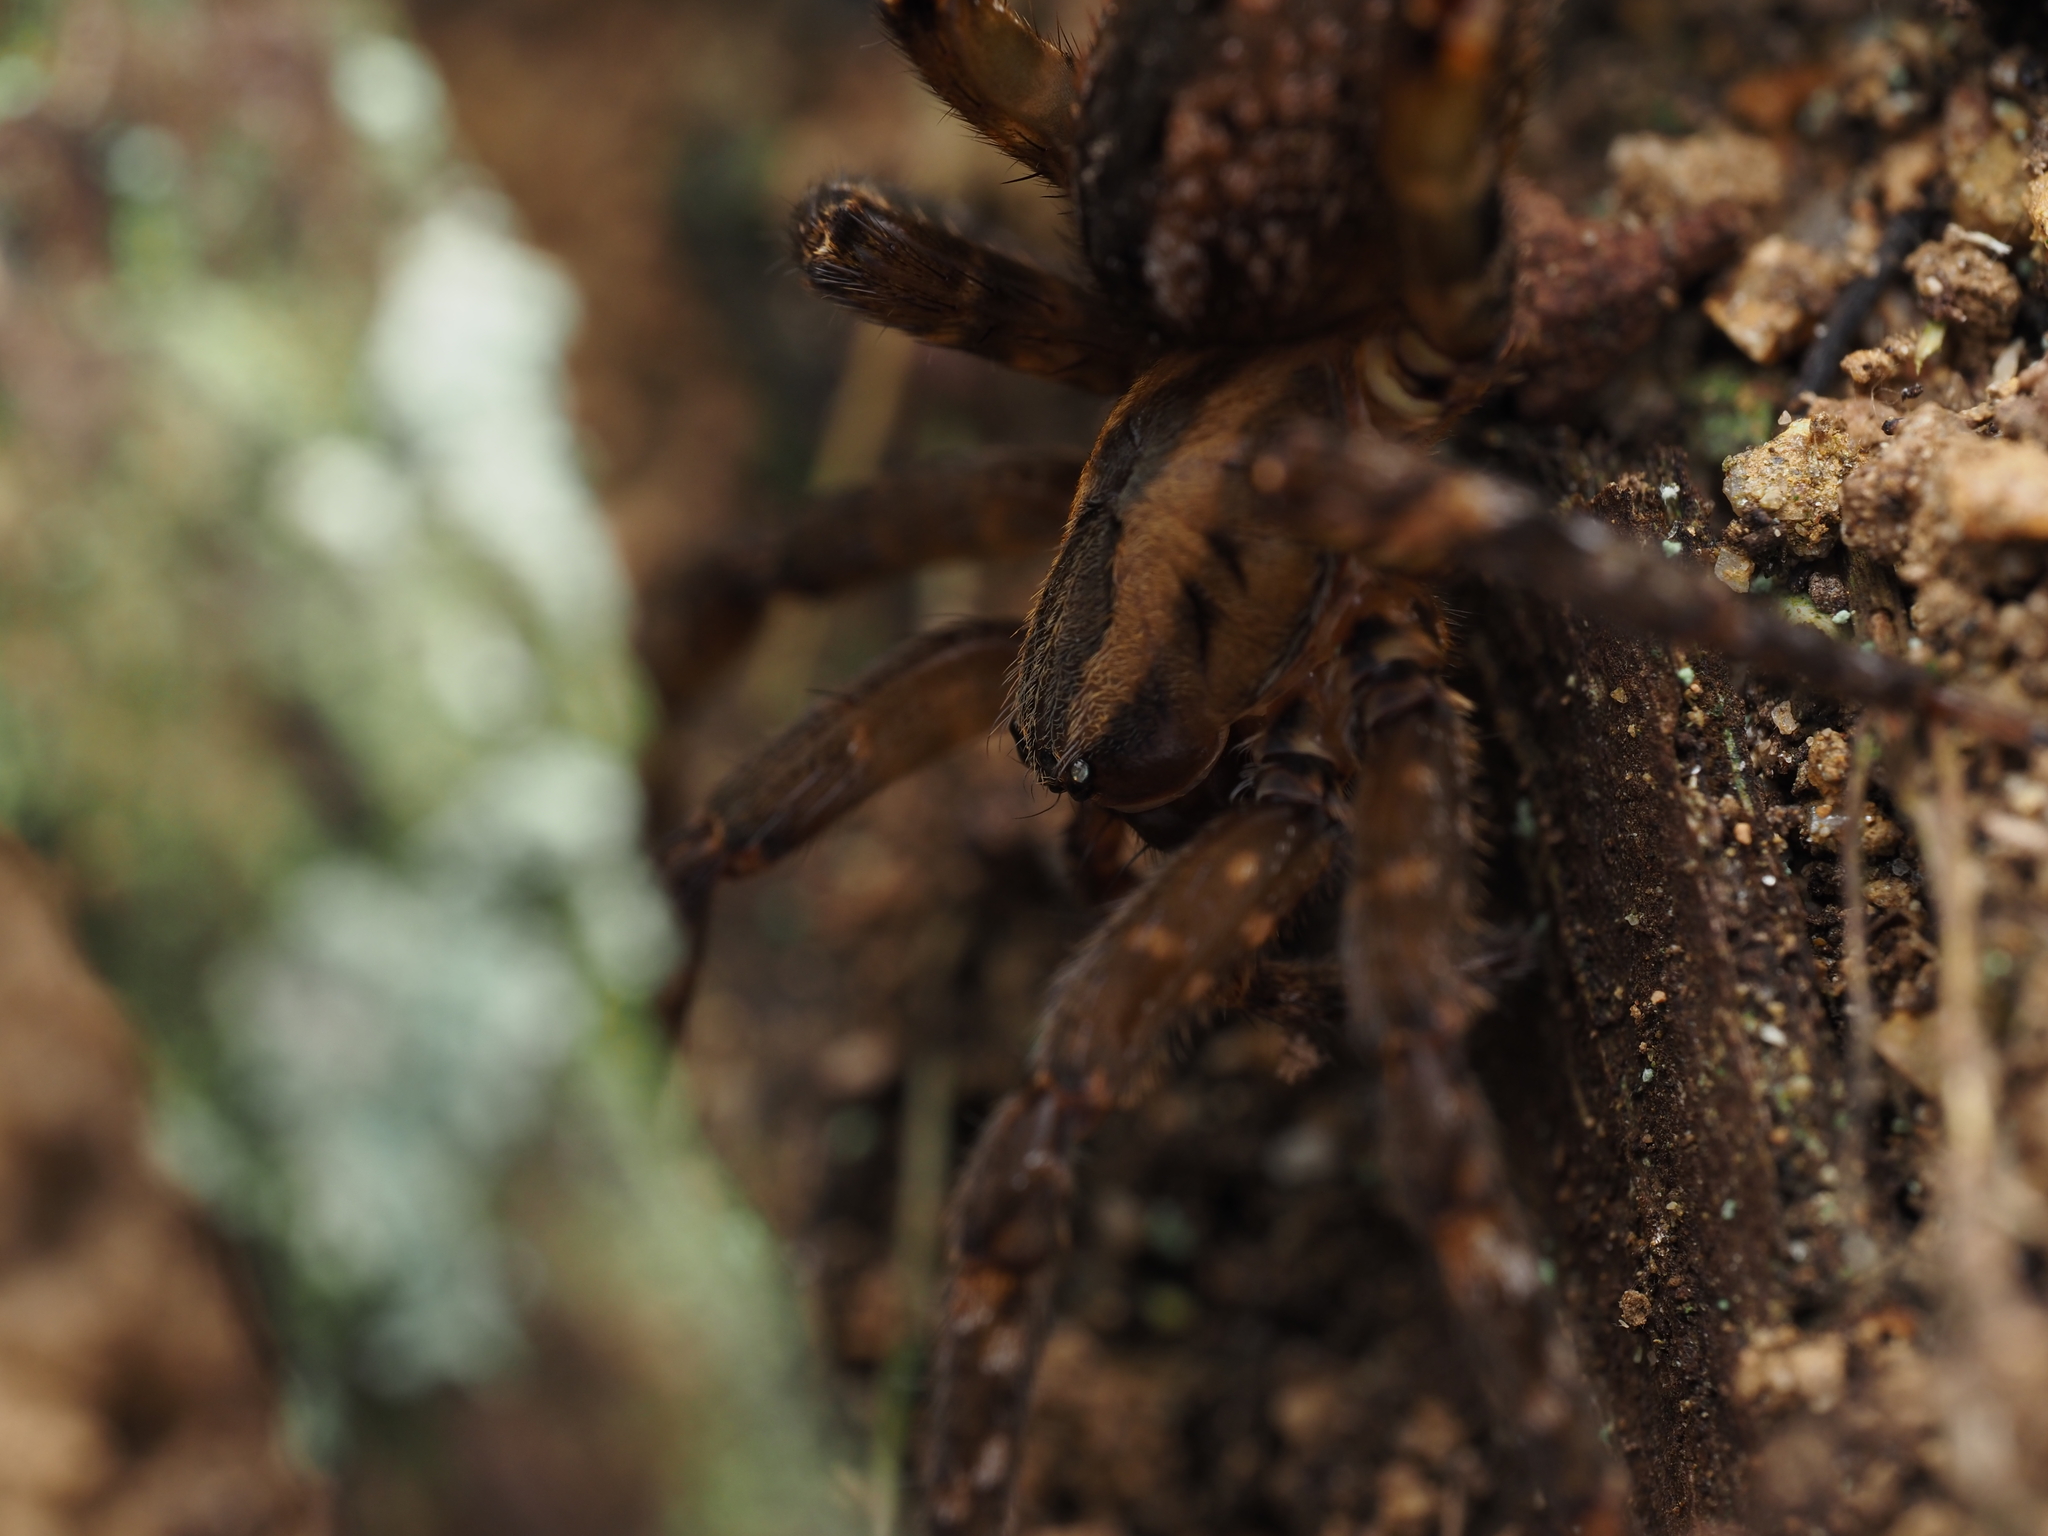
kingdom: Animalia
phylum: Arthropoda
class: Arachnida
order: Araneae
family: Gradungulidae
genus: Gradungula
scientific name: Gradungula sorenseni
